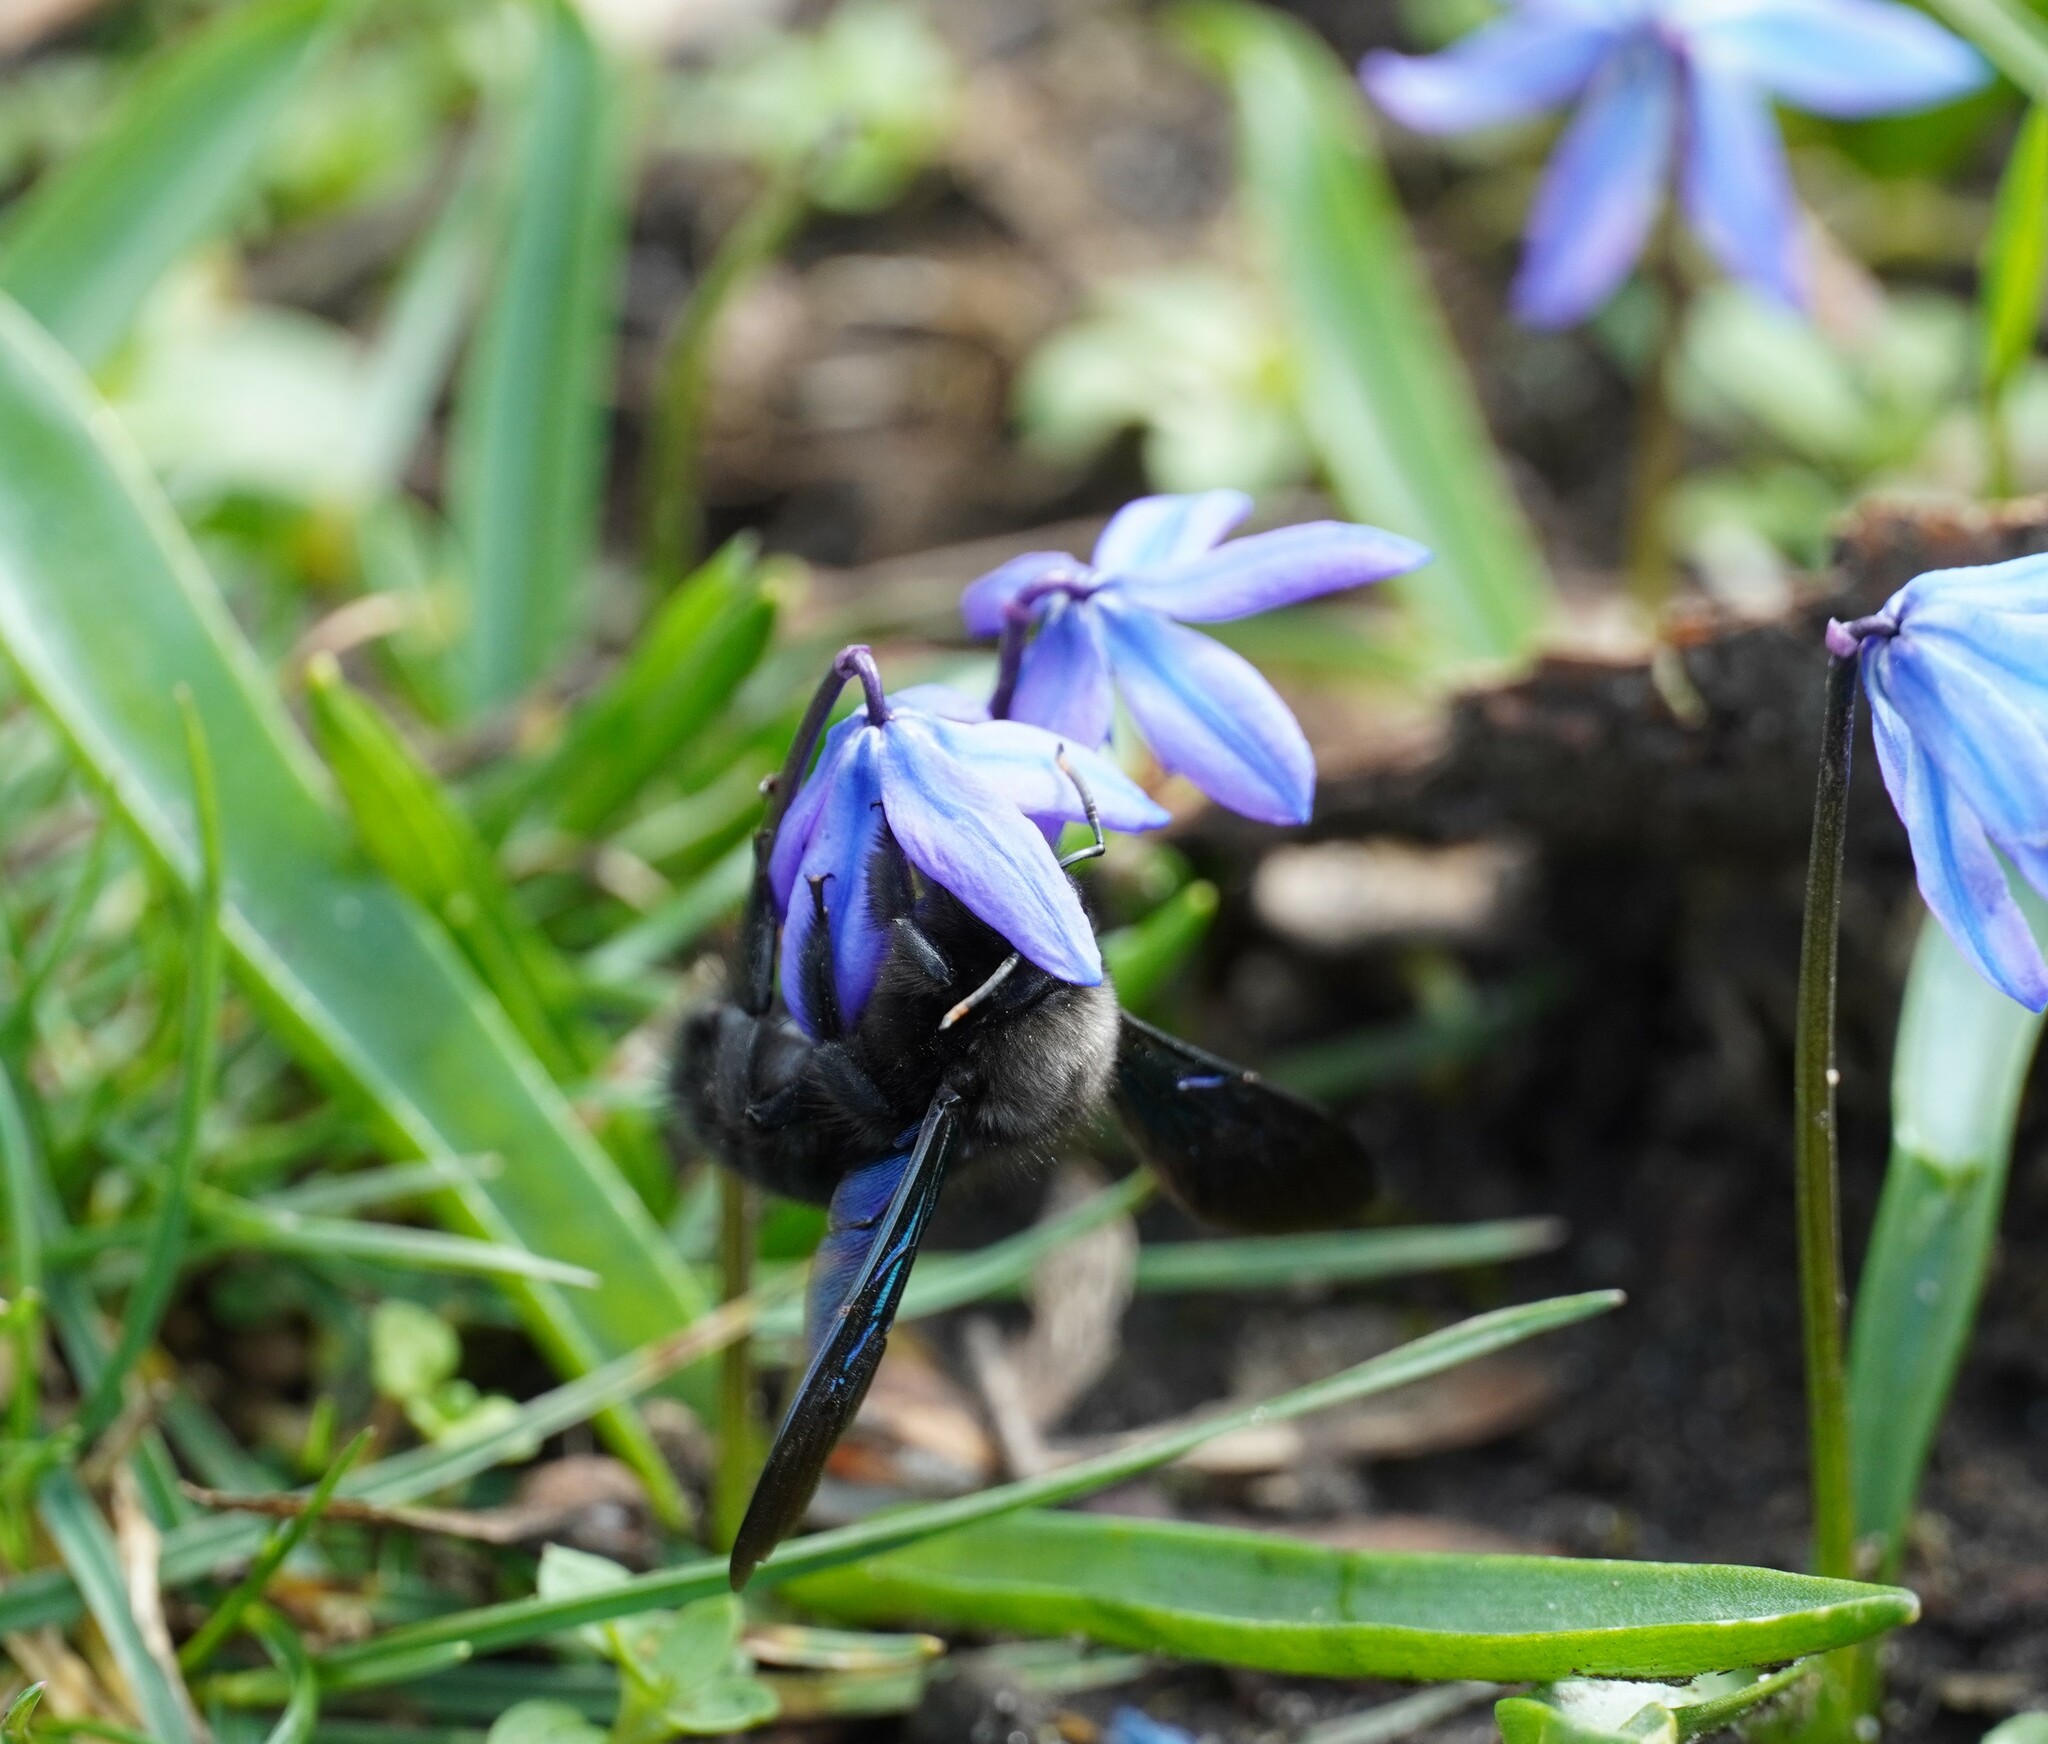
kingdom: Animalia
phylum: Arthropoda
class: Insecta
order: Hymenoptera
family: Apidae
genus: Xylocopa
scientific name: Xylocopa violacea
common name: Violet carpenter bee
